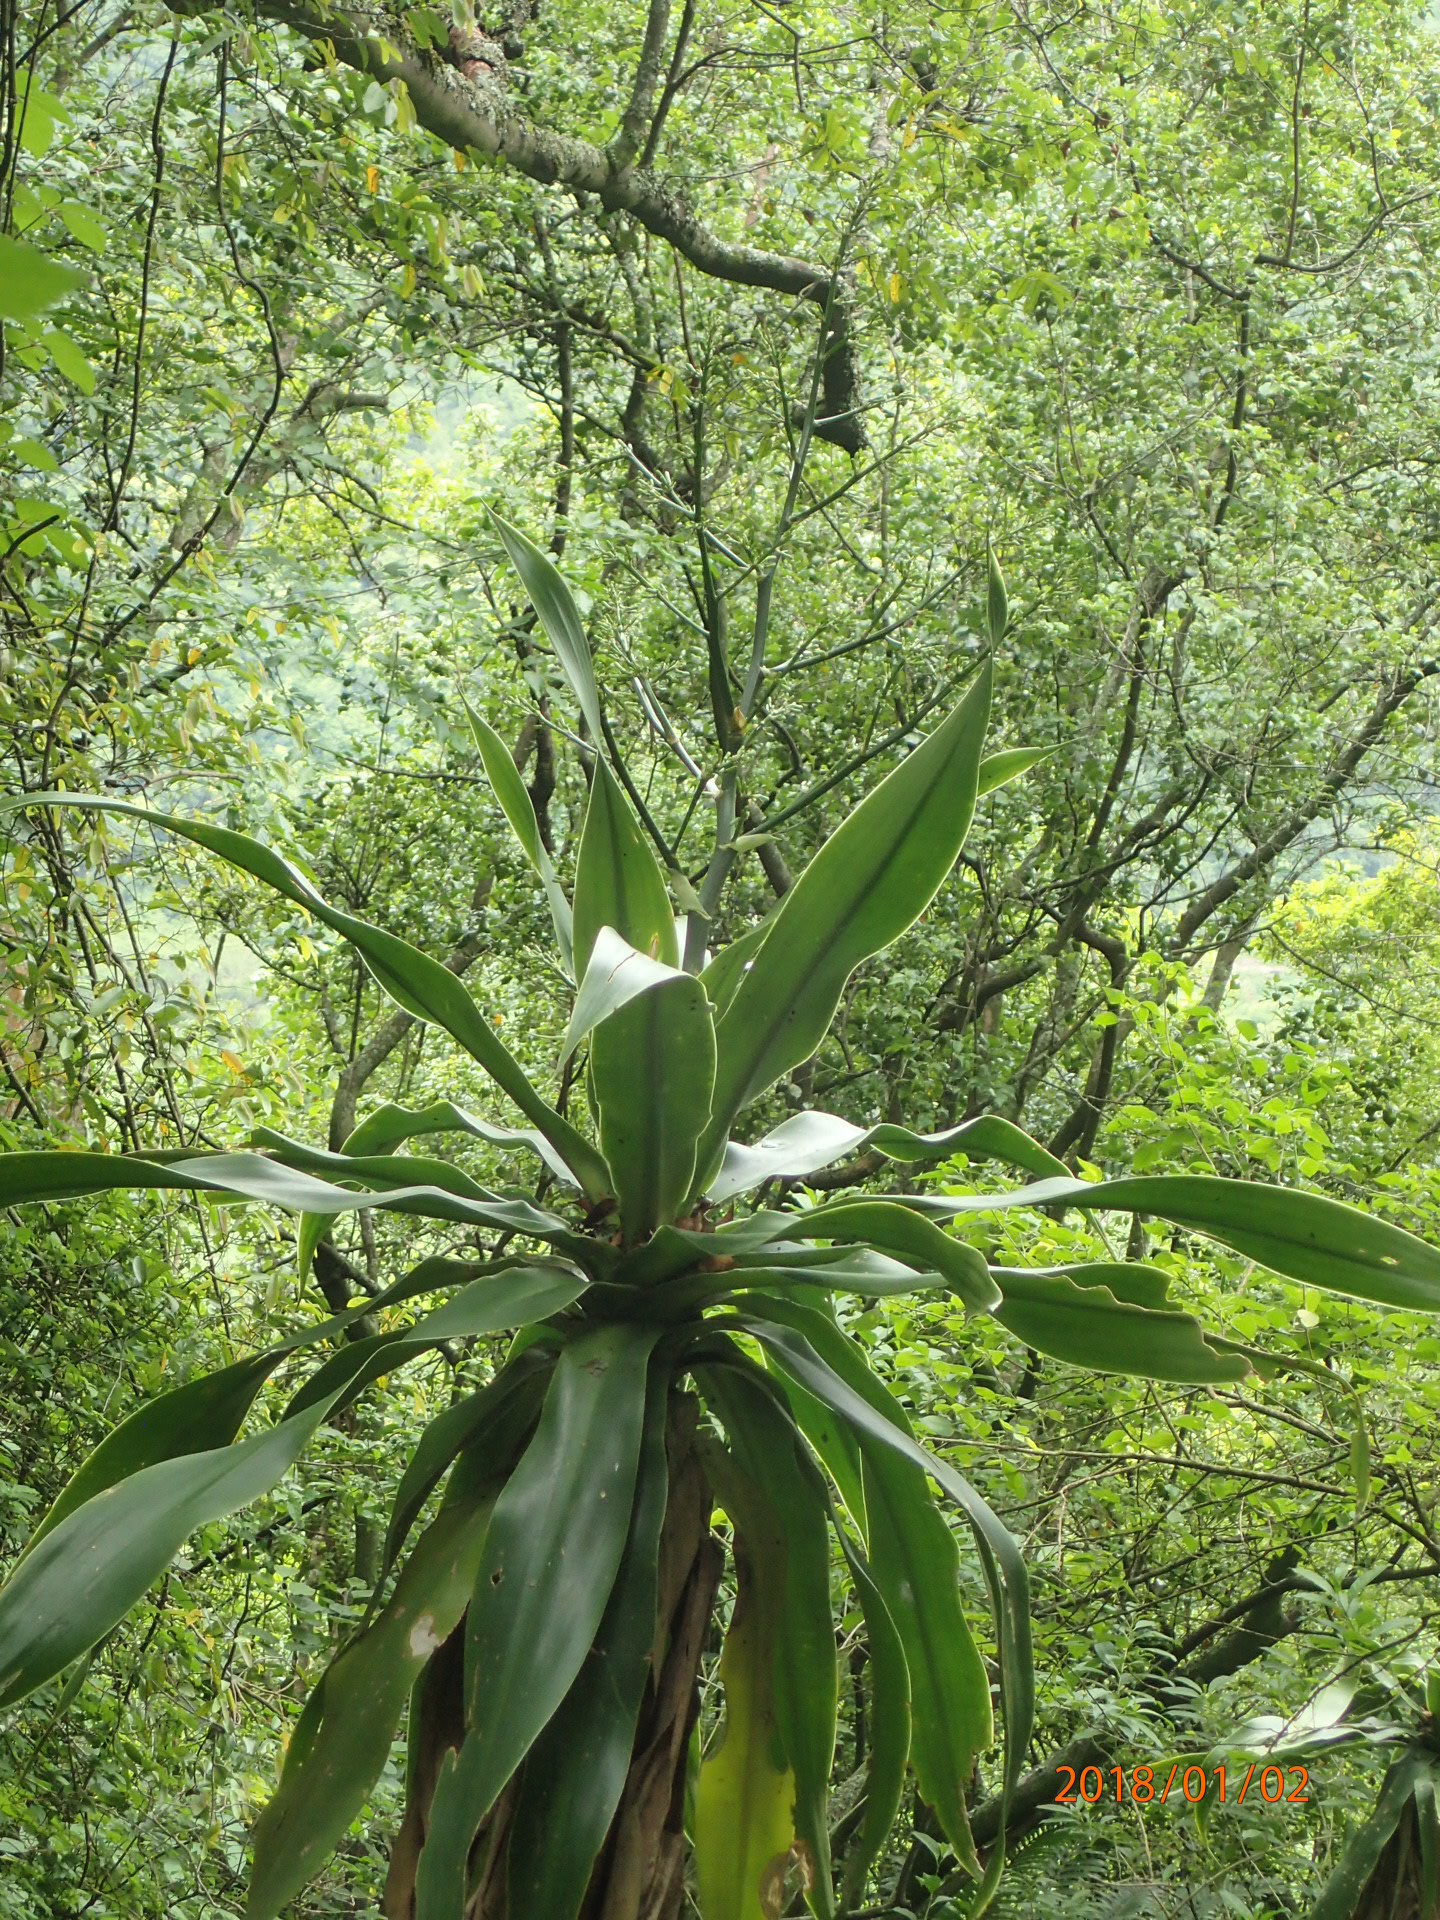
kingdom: Plantae
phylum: Tracheophyta
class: Liliopsida
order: Asparagales
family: Asparagaceae
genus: Dracaena
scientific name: Dracaena aletriformis
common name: Large-leaved dragon tree
